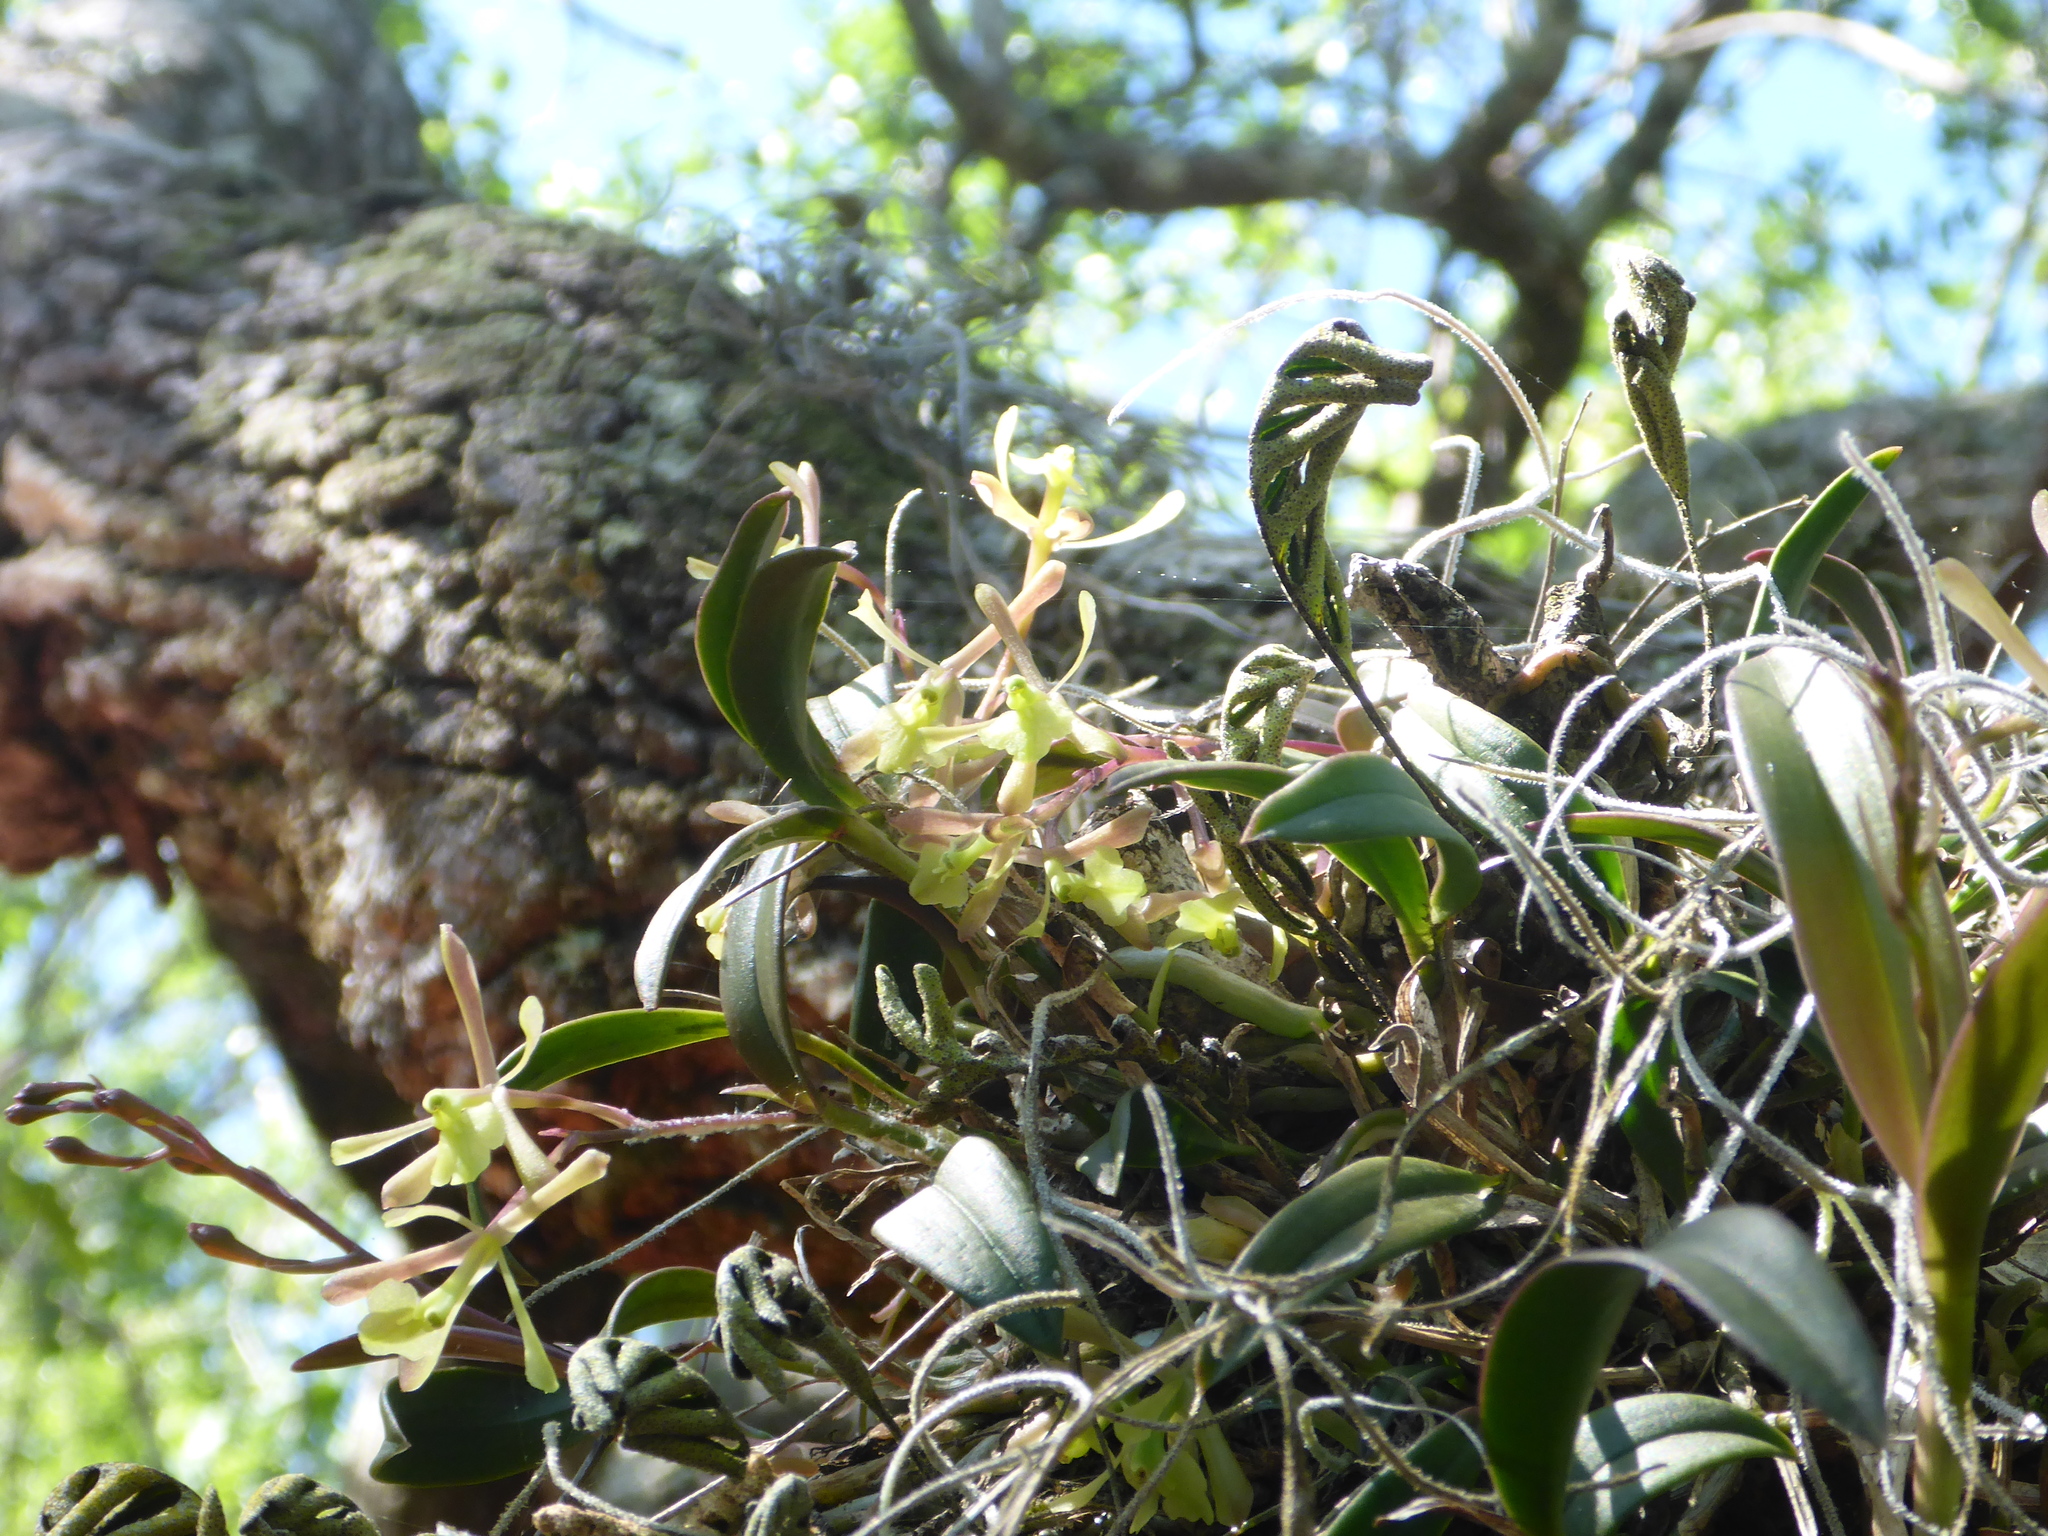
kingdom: Plantae
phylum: Tracheophyta
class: Liliopsida
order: Asparagales
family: Orchidaceae
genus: Epidendrum
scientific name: Epidendrum conopseum
